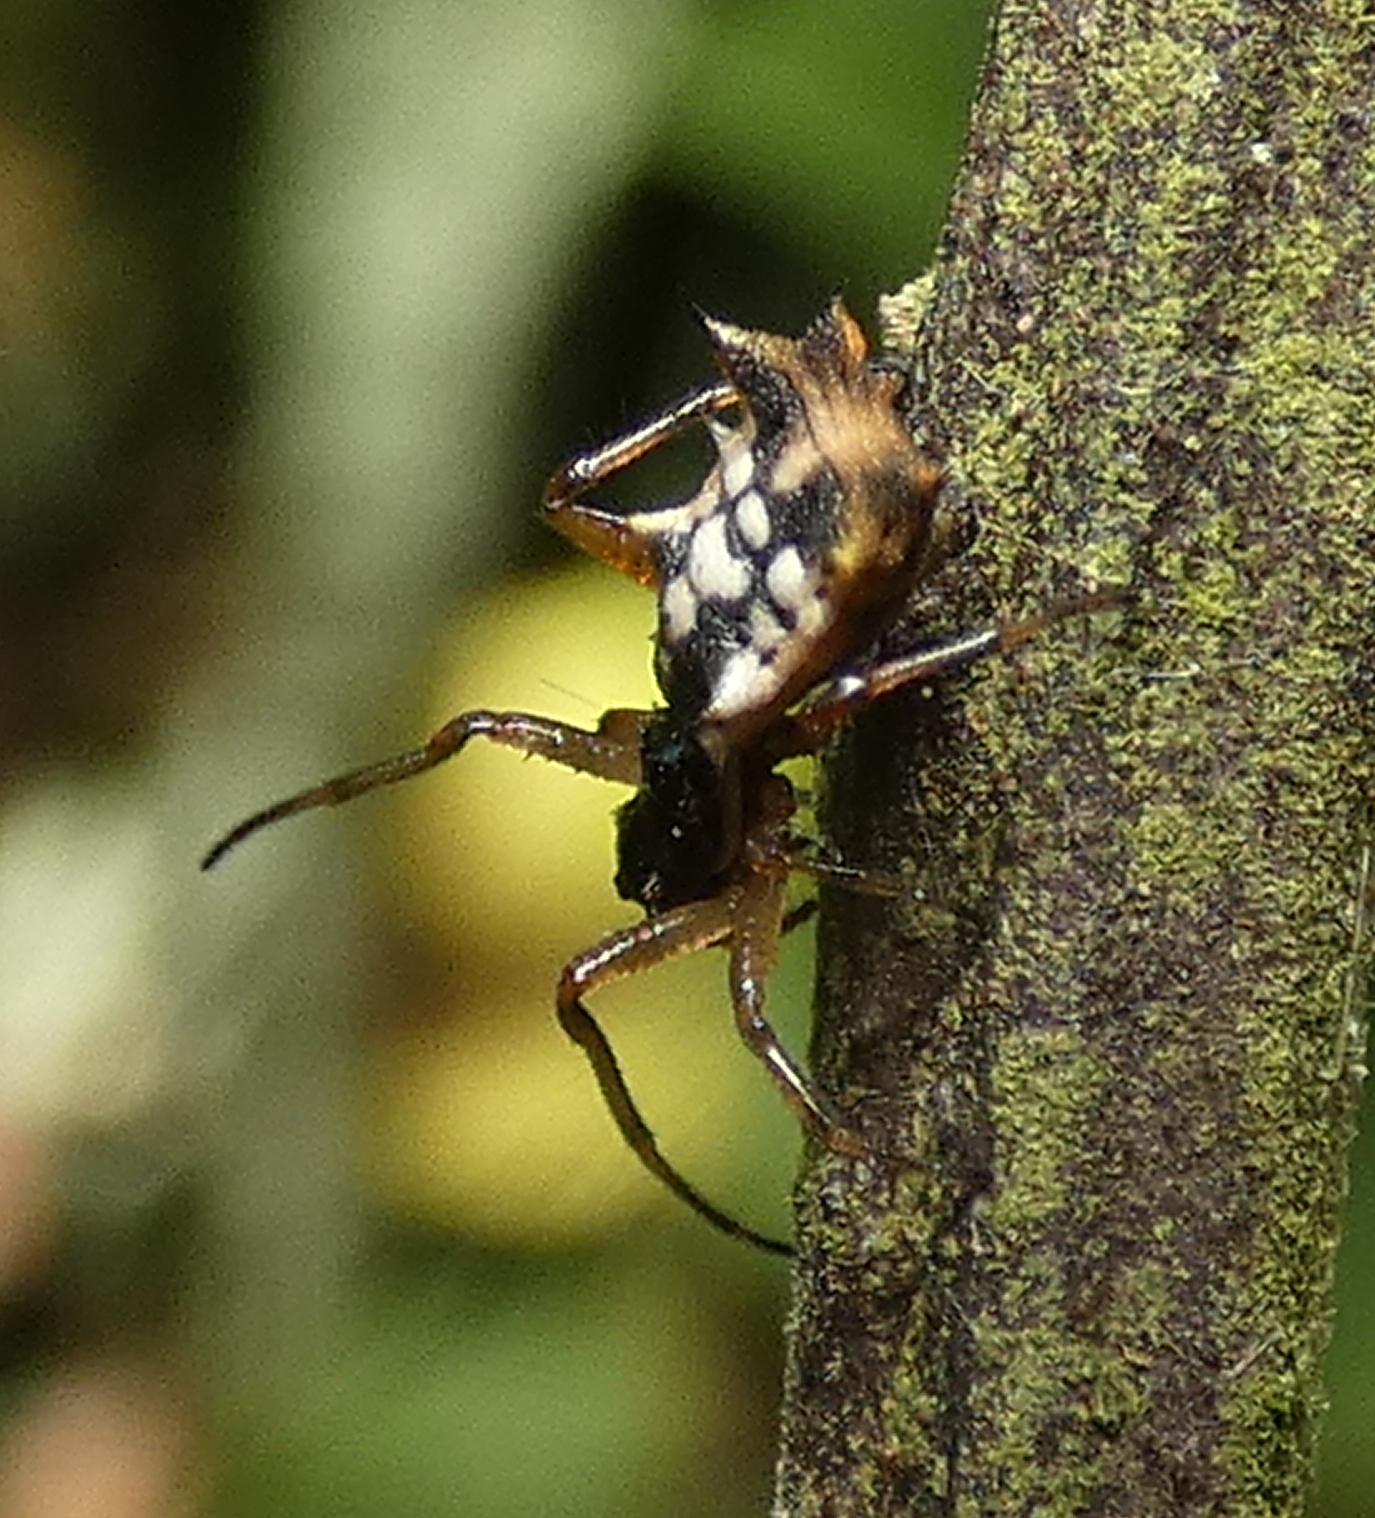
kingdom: Animalia
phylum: Arthropoda
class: Arachnida
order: Araneae
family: Araneidae
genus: Micrathena
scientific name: Micrathena picta
